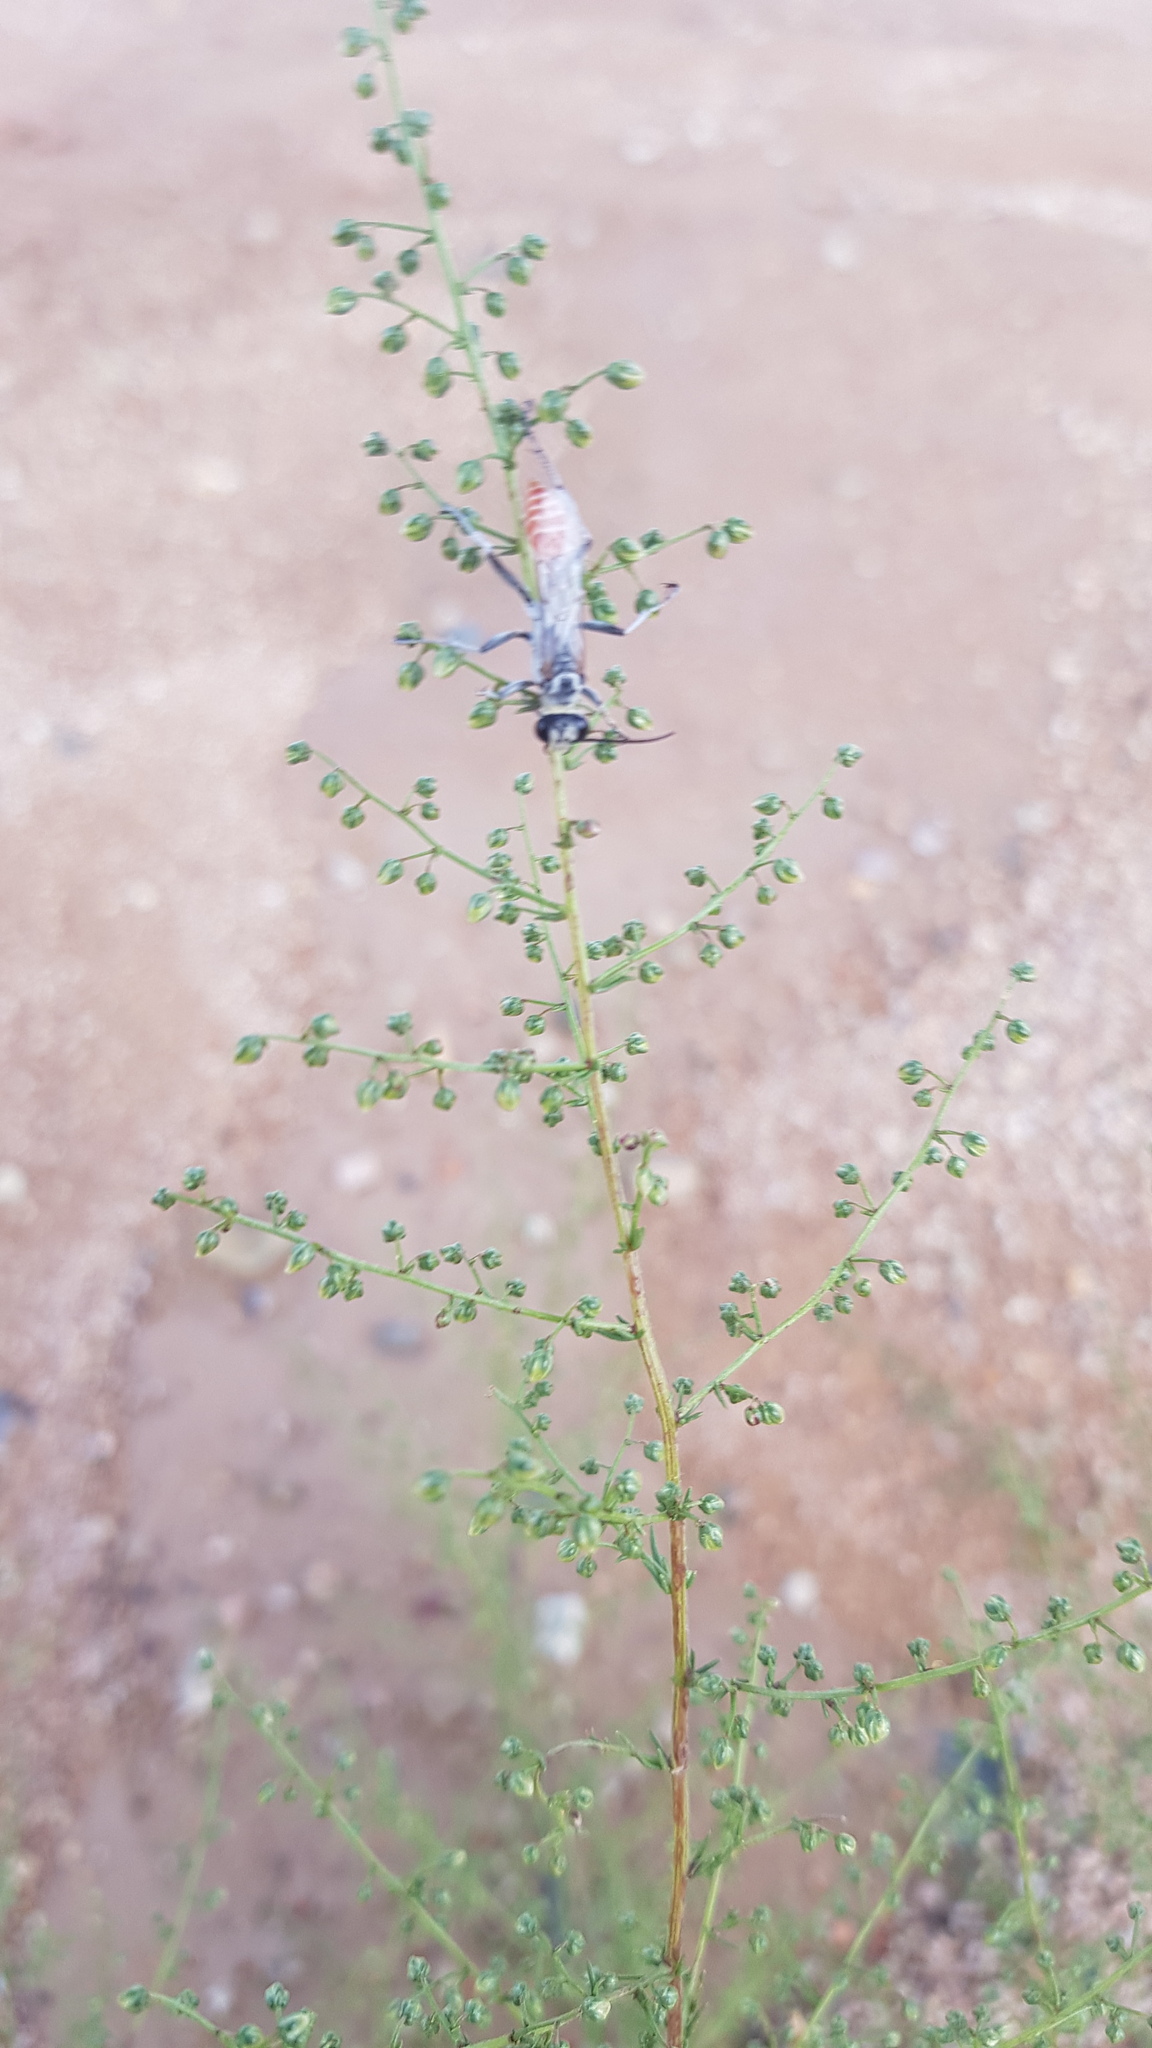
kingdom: Plantae
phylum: Tracheophyta
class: Magnoliopsida
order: Asterales
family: Asteraceae
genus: Artemisia
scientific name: Artemisia scoparia
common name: Redstem wormwood
